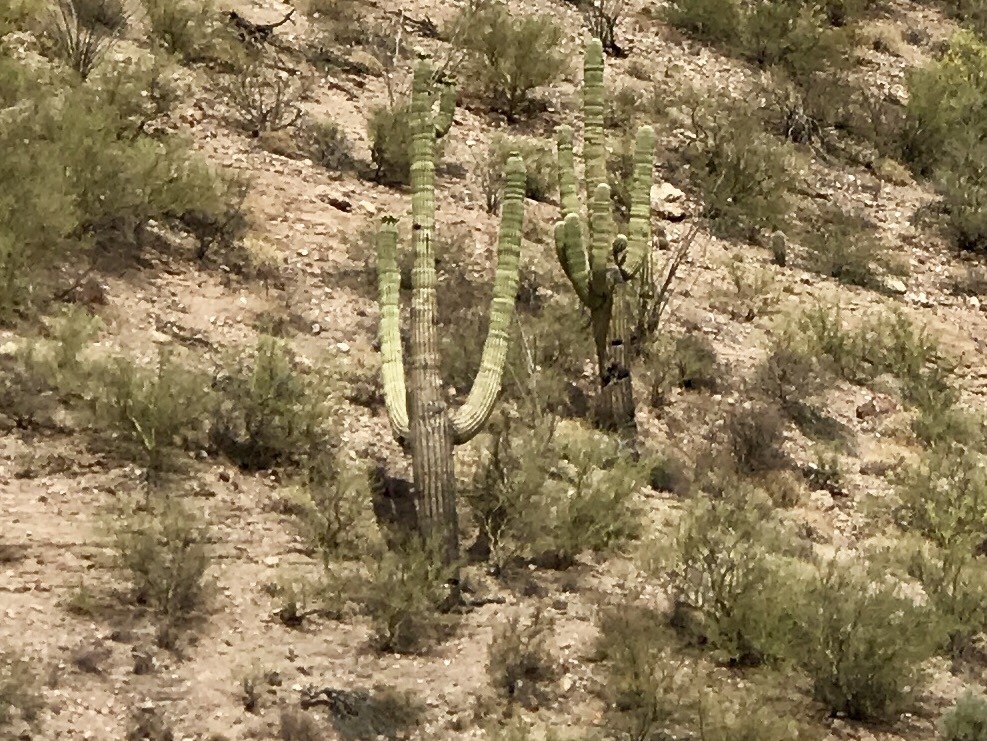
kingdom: Plantae
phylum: Tracheophyta
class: Magnoliopsida
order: Caryophyllales
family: Cactaceae
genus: Carnegiea
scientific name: Carnegiea gigantea
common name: Saguaro
